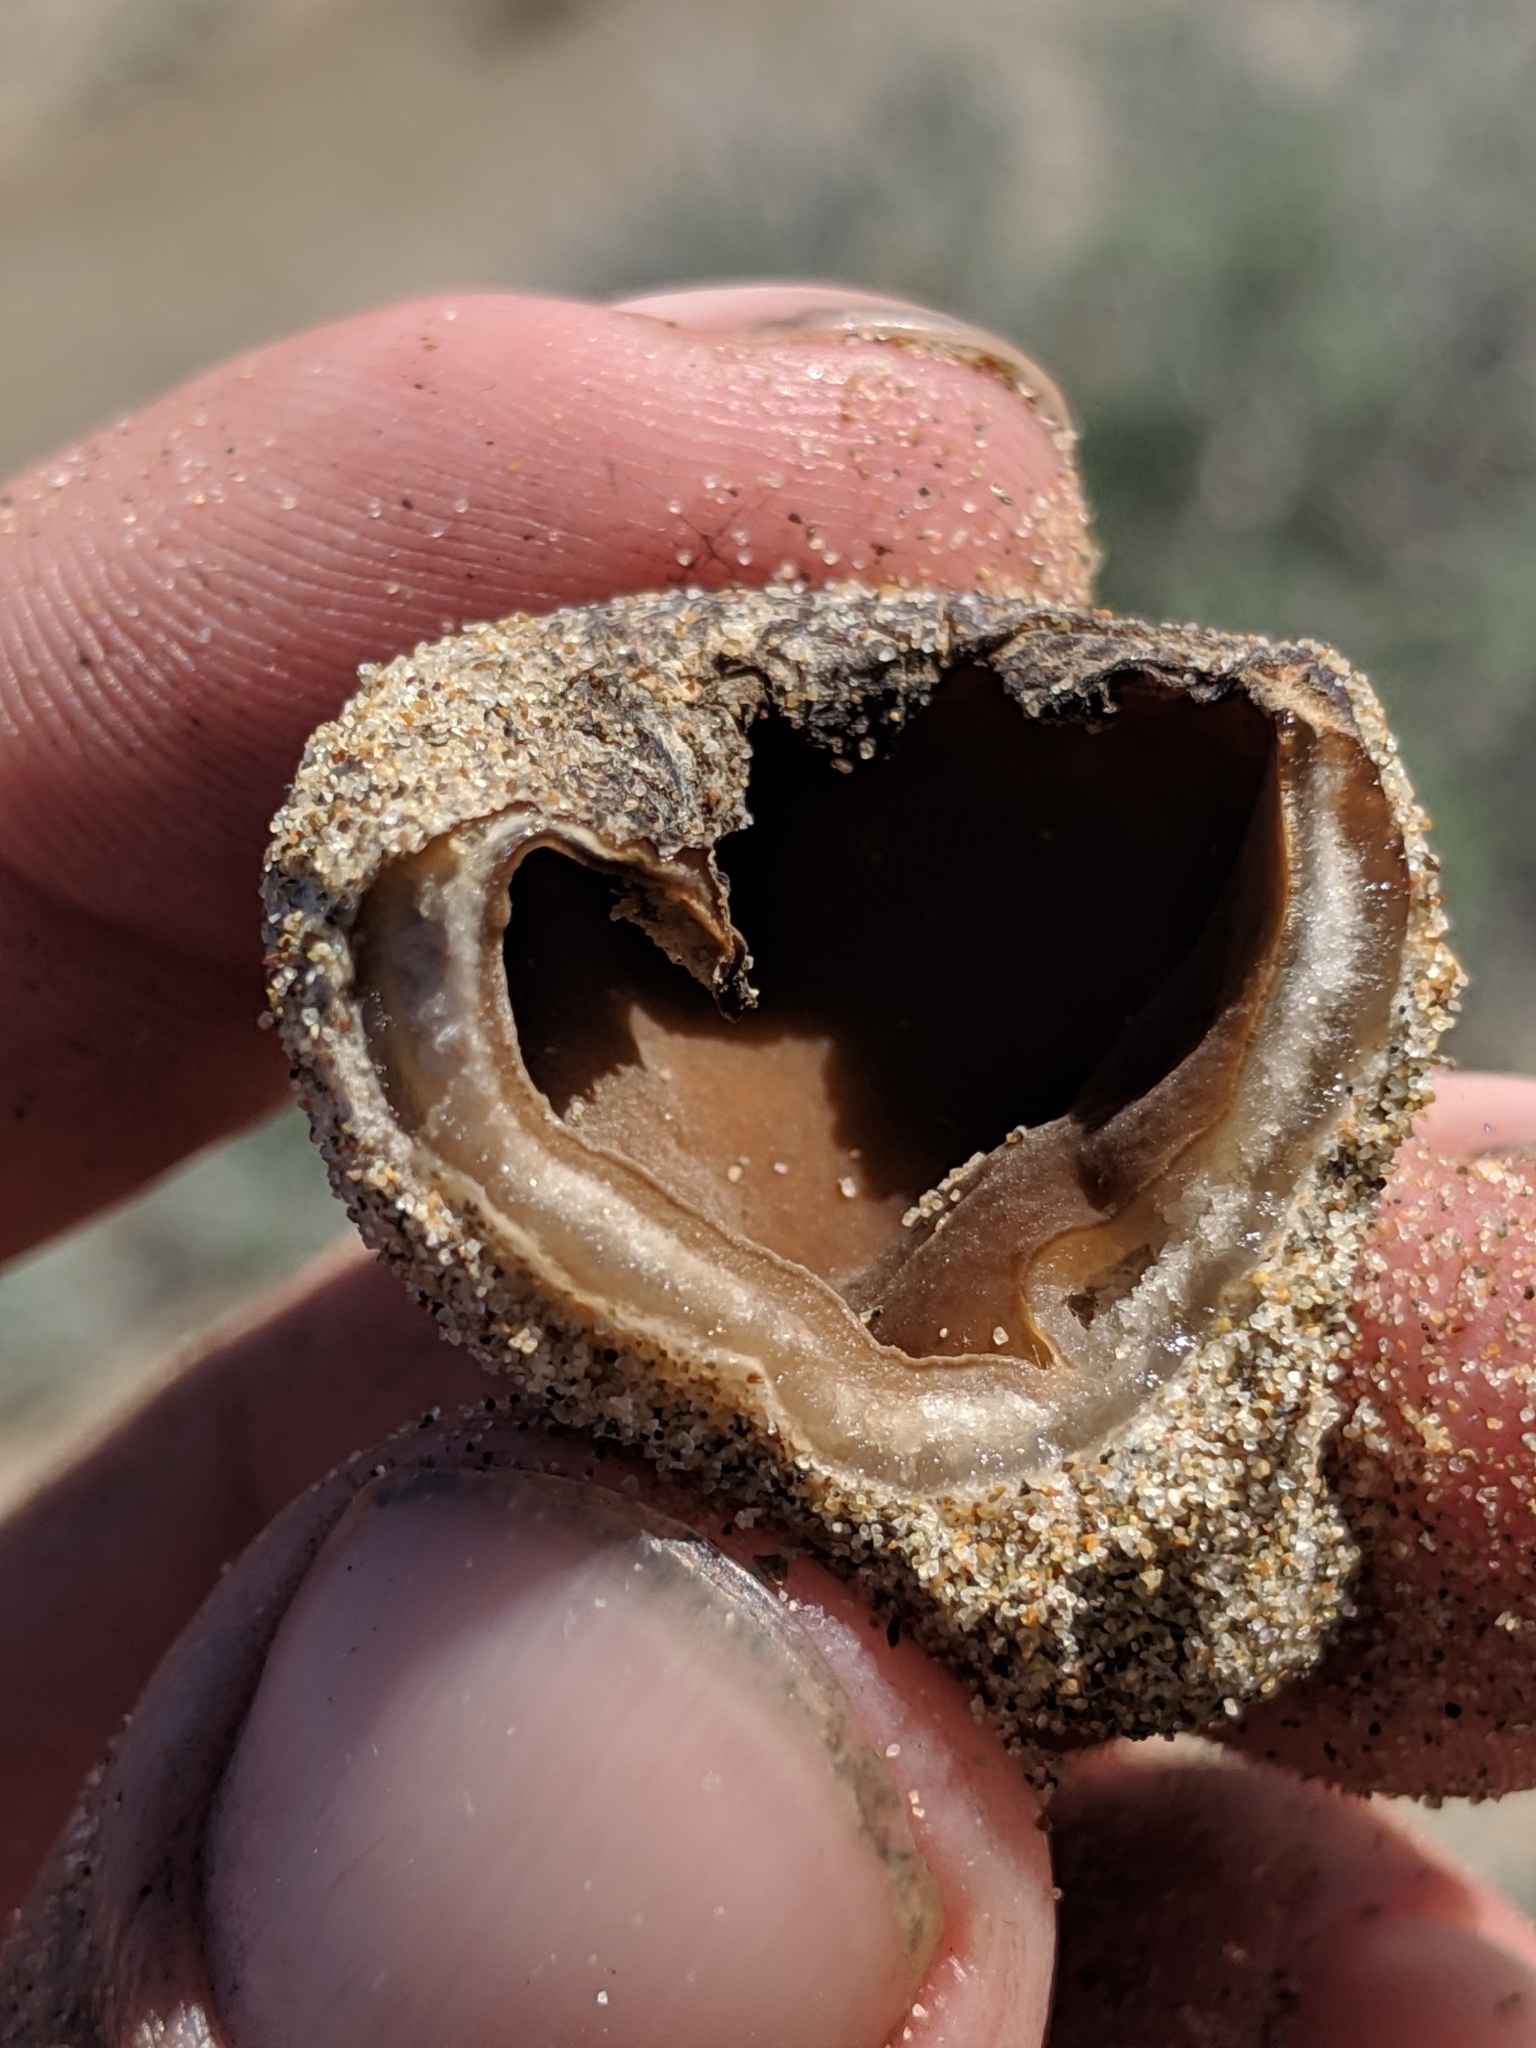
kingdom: Fungi
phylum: Ascomycota
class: Pezizomycetes
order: Pezizales
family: Pezizaceae
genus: Peziza
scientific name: Peziza ammophila
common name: Dune cup
